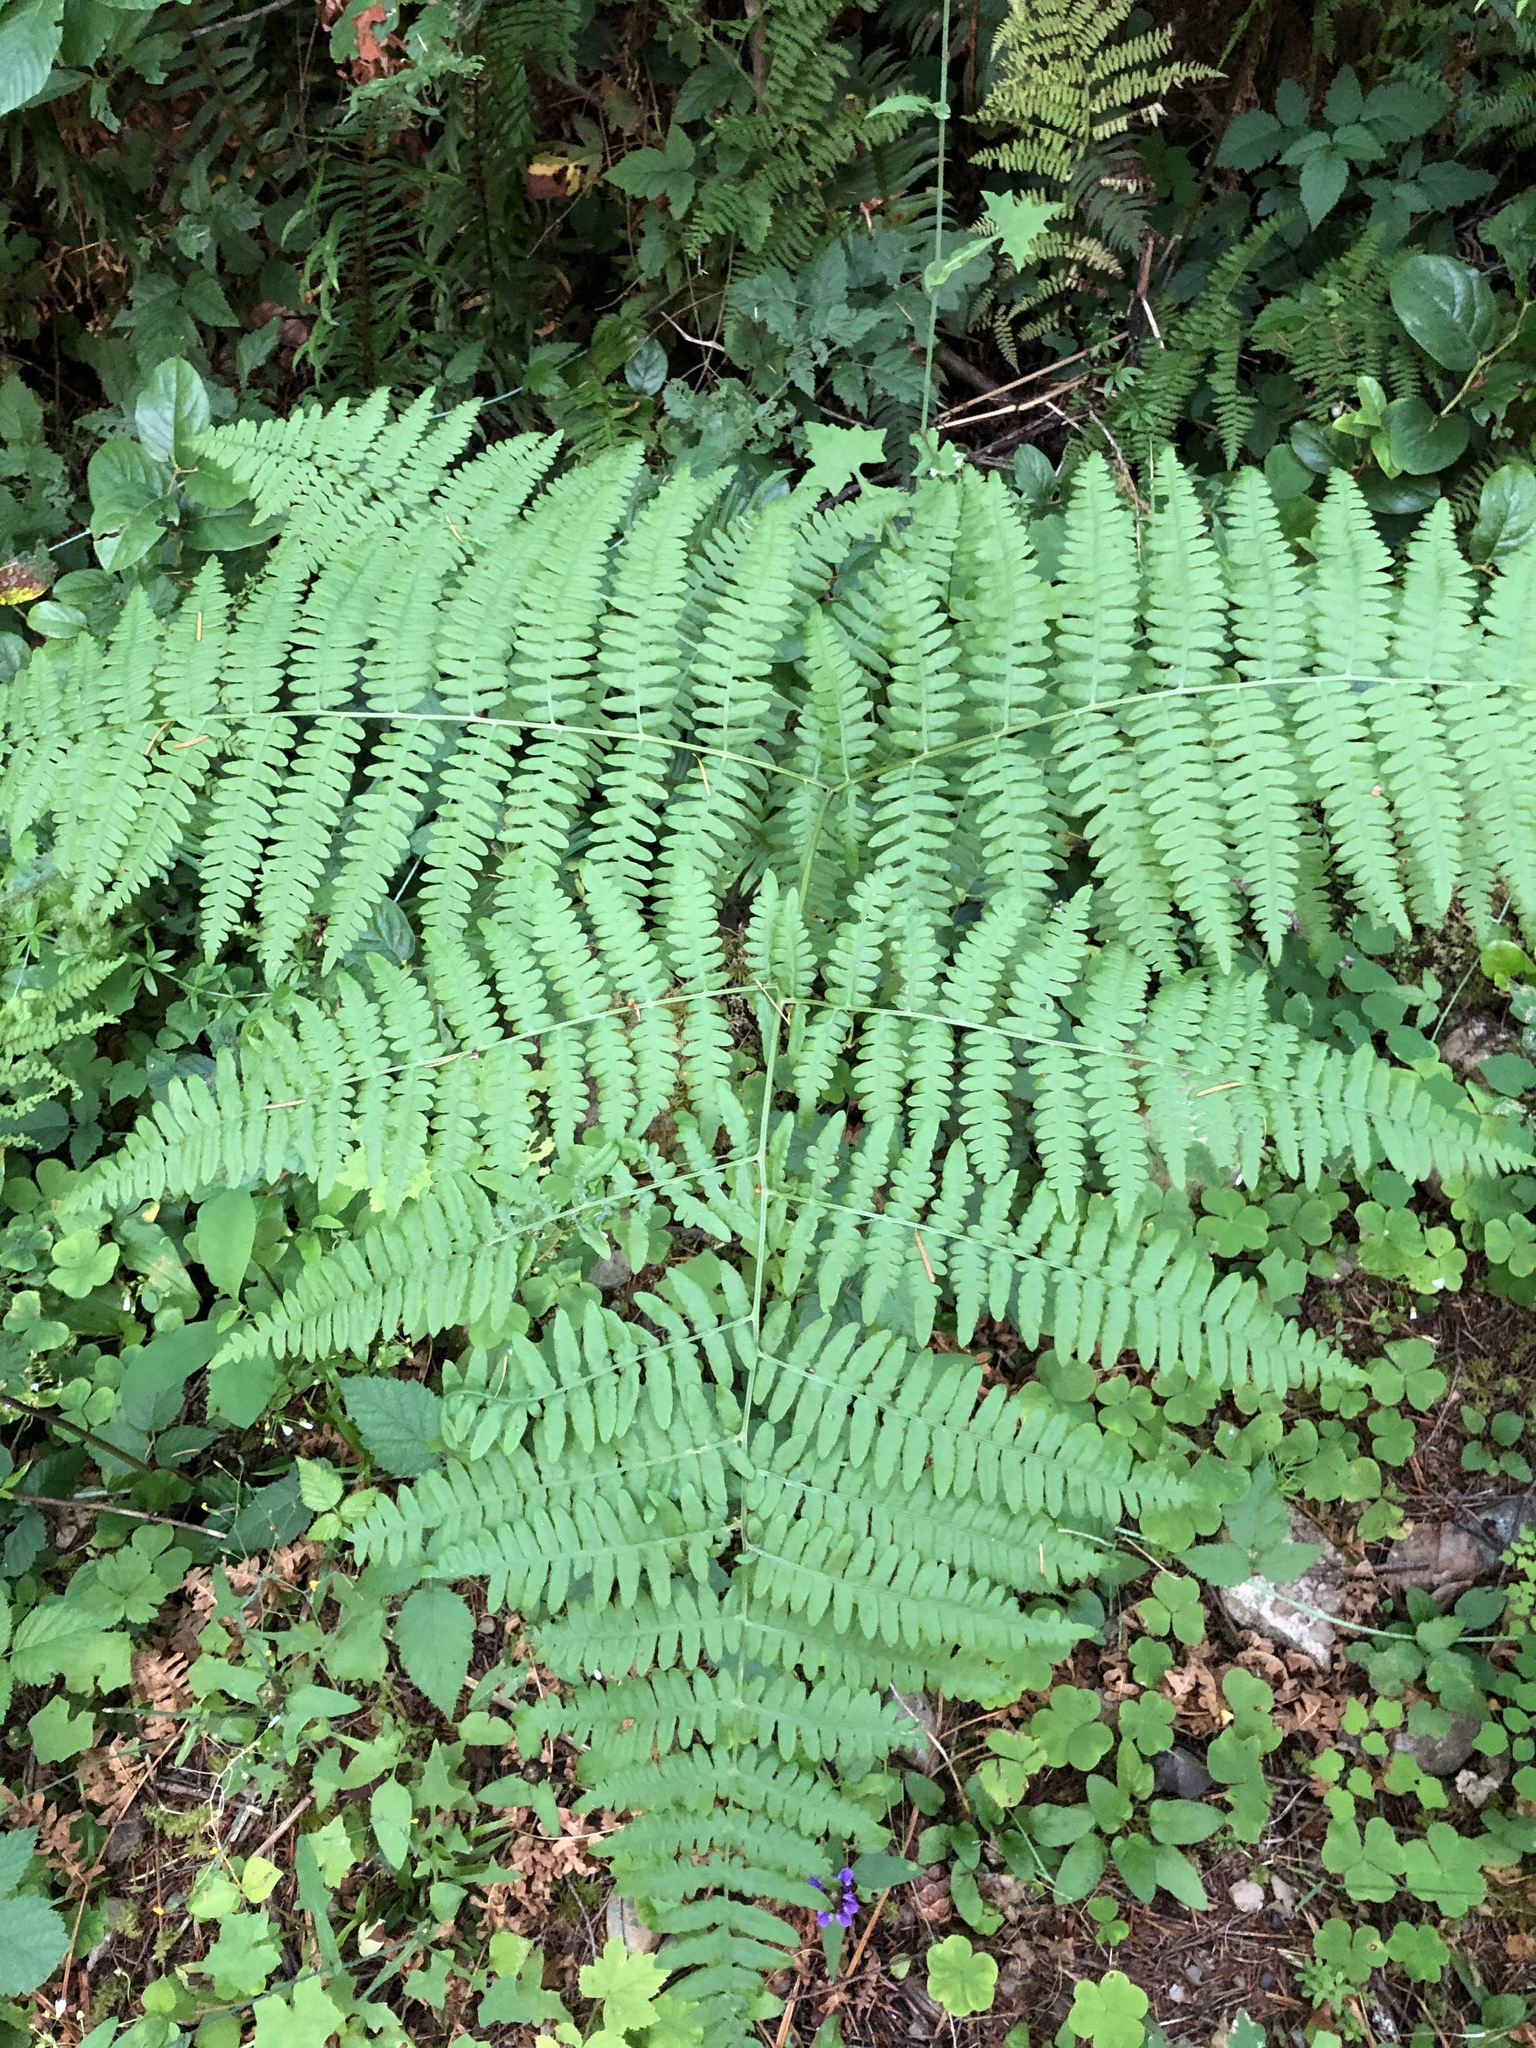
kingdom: Plantae
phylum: Tracheophyta
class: Polypodiopsida
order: Polypodiales
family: Dennstaedtiaceae
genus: Pteridium
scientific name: Pteridium aquilinum
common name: Bracken
